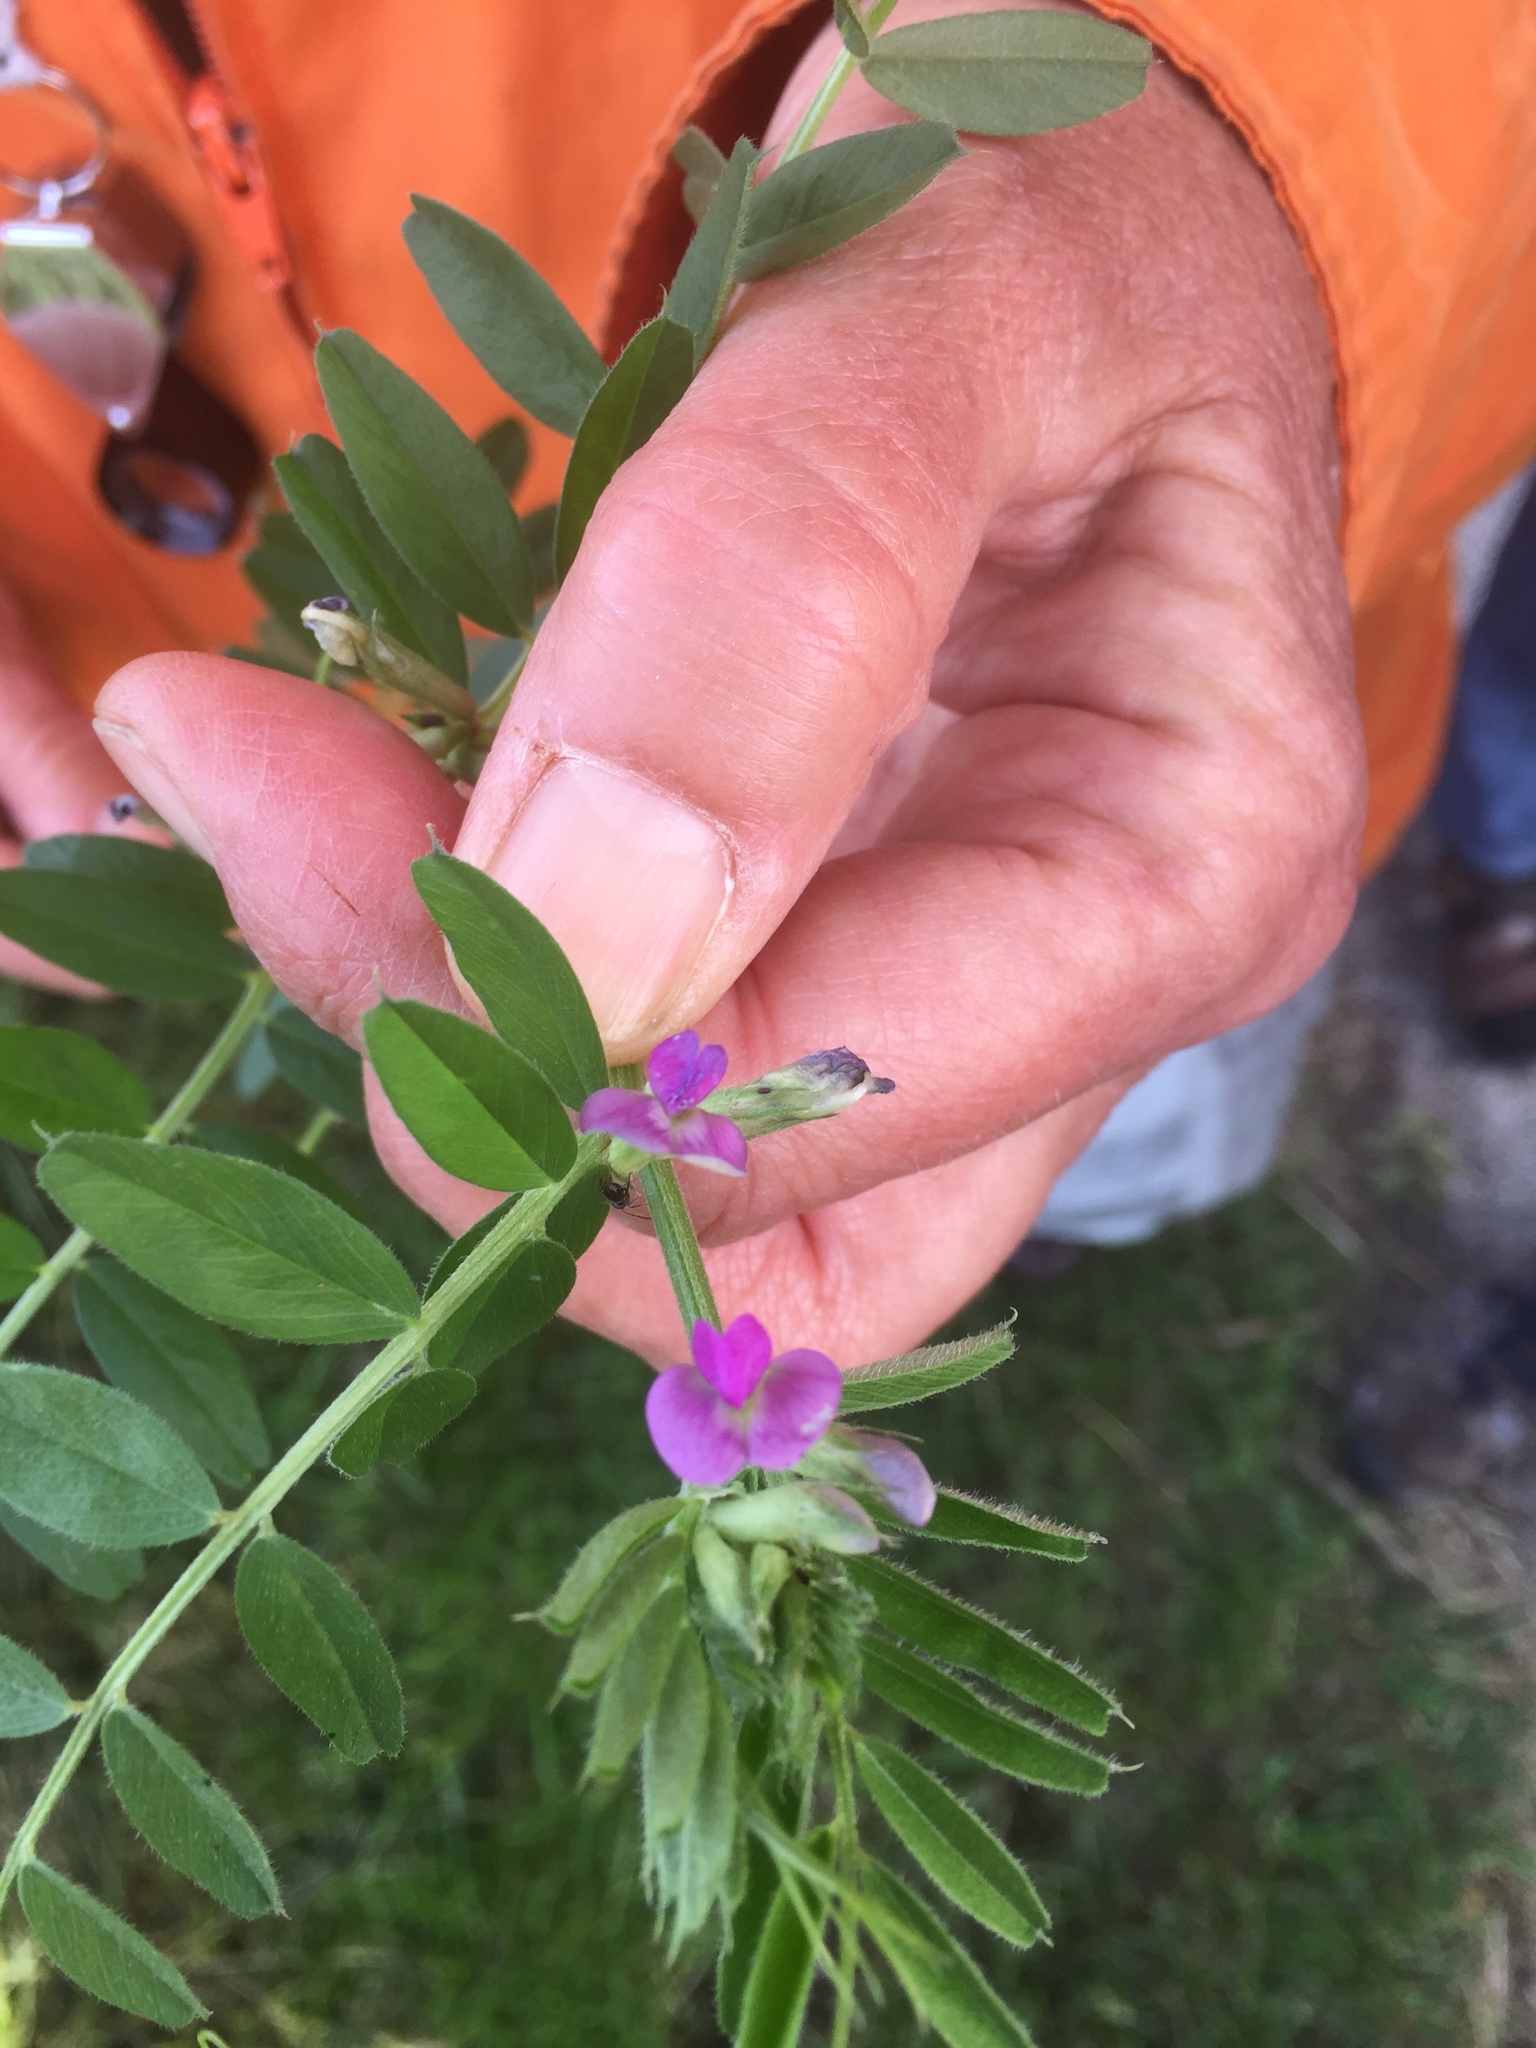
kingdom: Plantae
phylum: Tracheophyta
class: Magnoliopsida
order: Fabales
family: Fabaceae
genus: Vicia
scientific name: Vicia sativa
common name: Garden vetch
